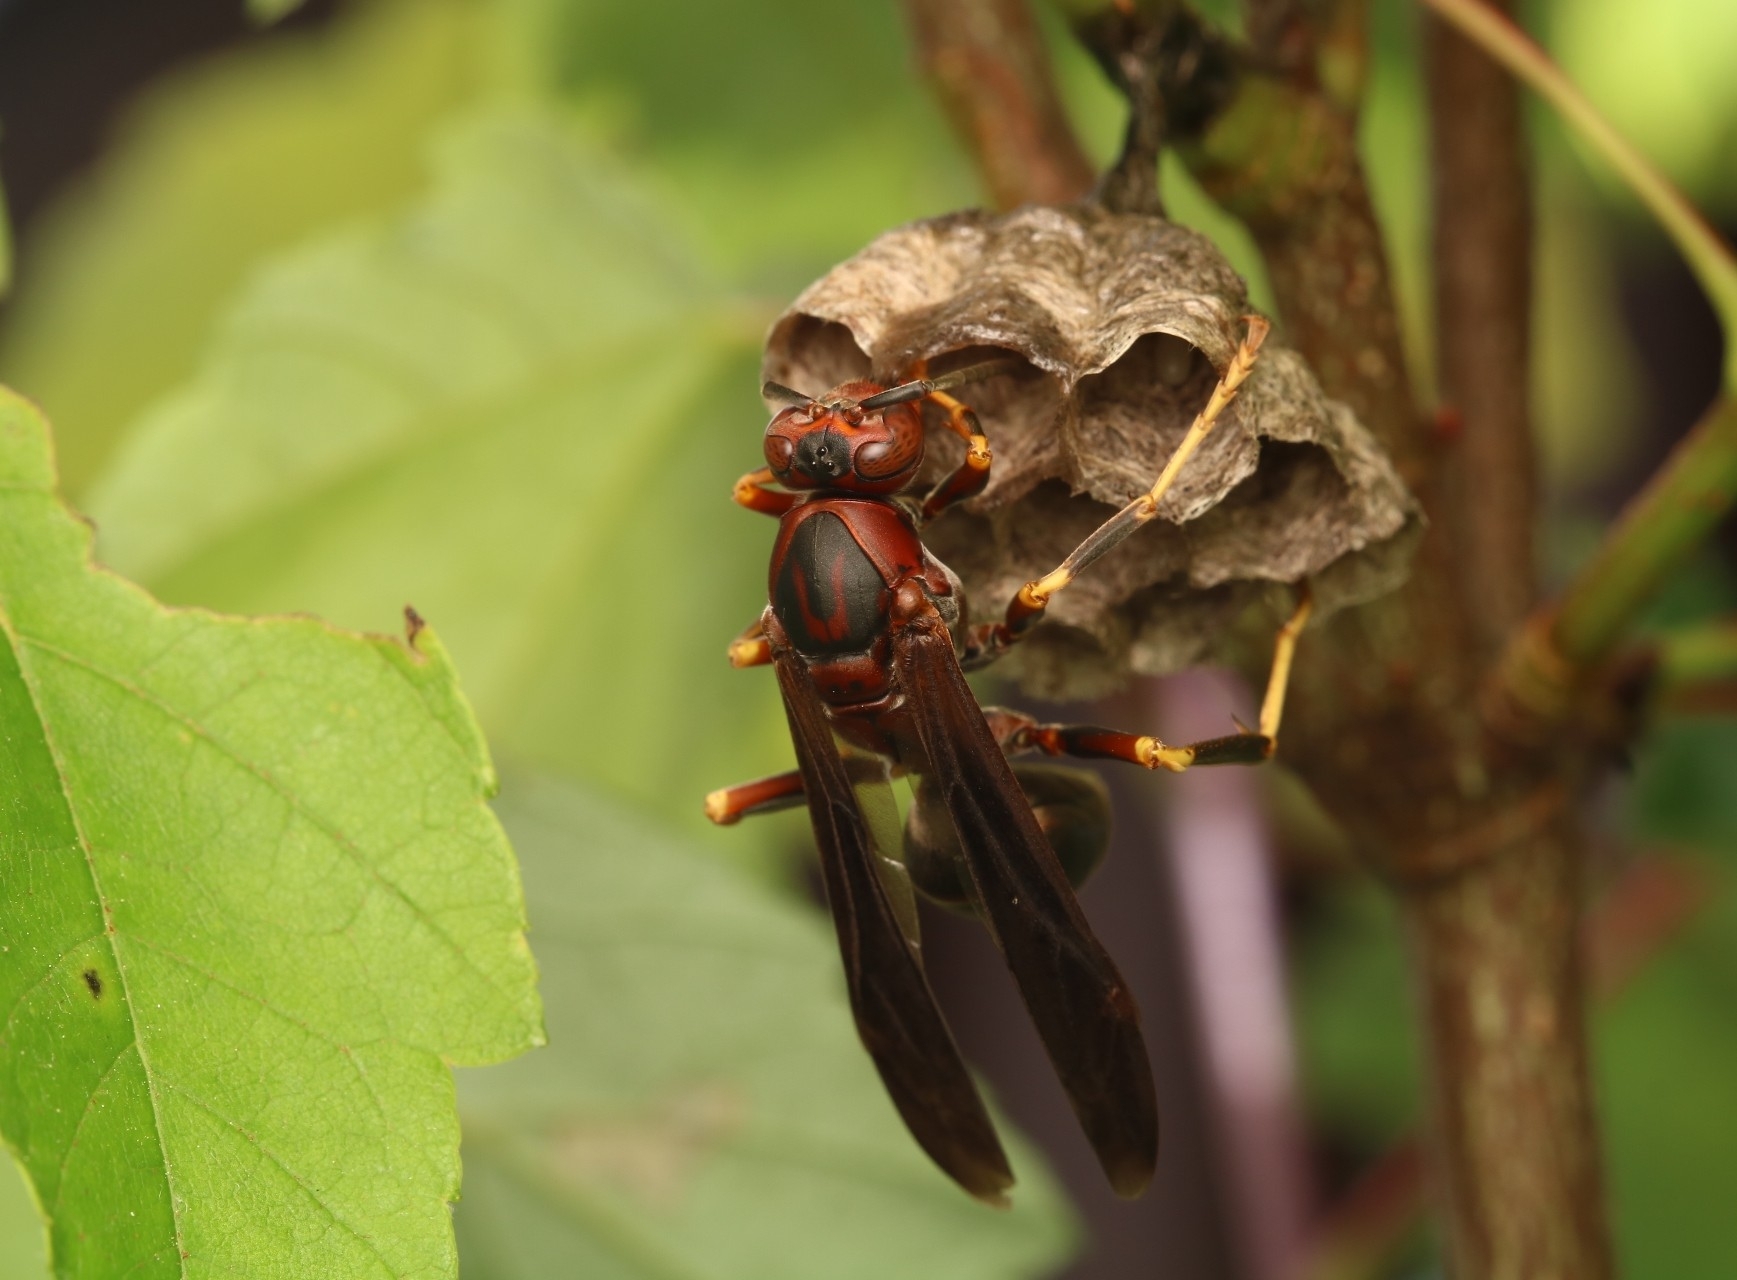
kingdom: Animalia
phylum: Arthropoda
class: Insecta
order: Hymenoptera
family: Eumenidae
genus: Polistes
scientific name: Polistes metricus
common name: Metric paper wasp
